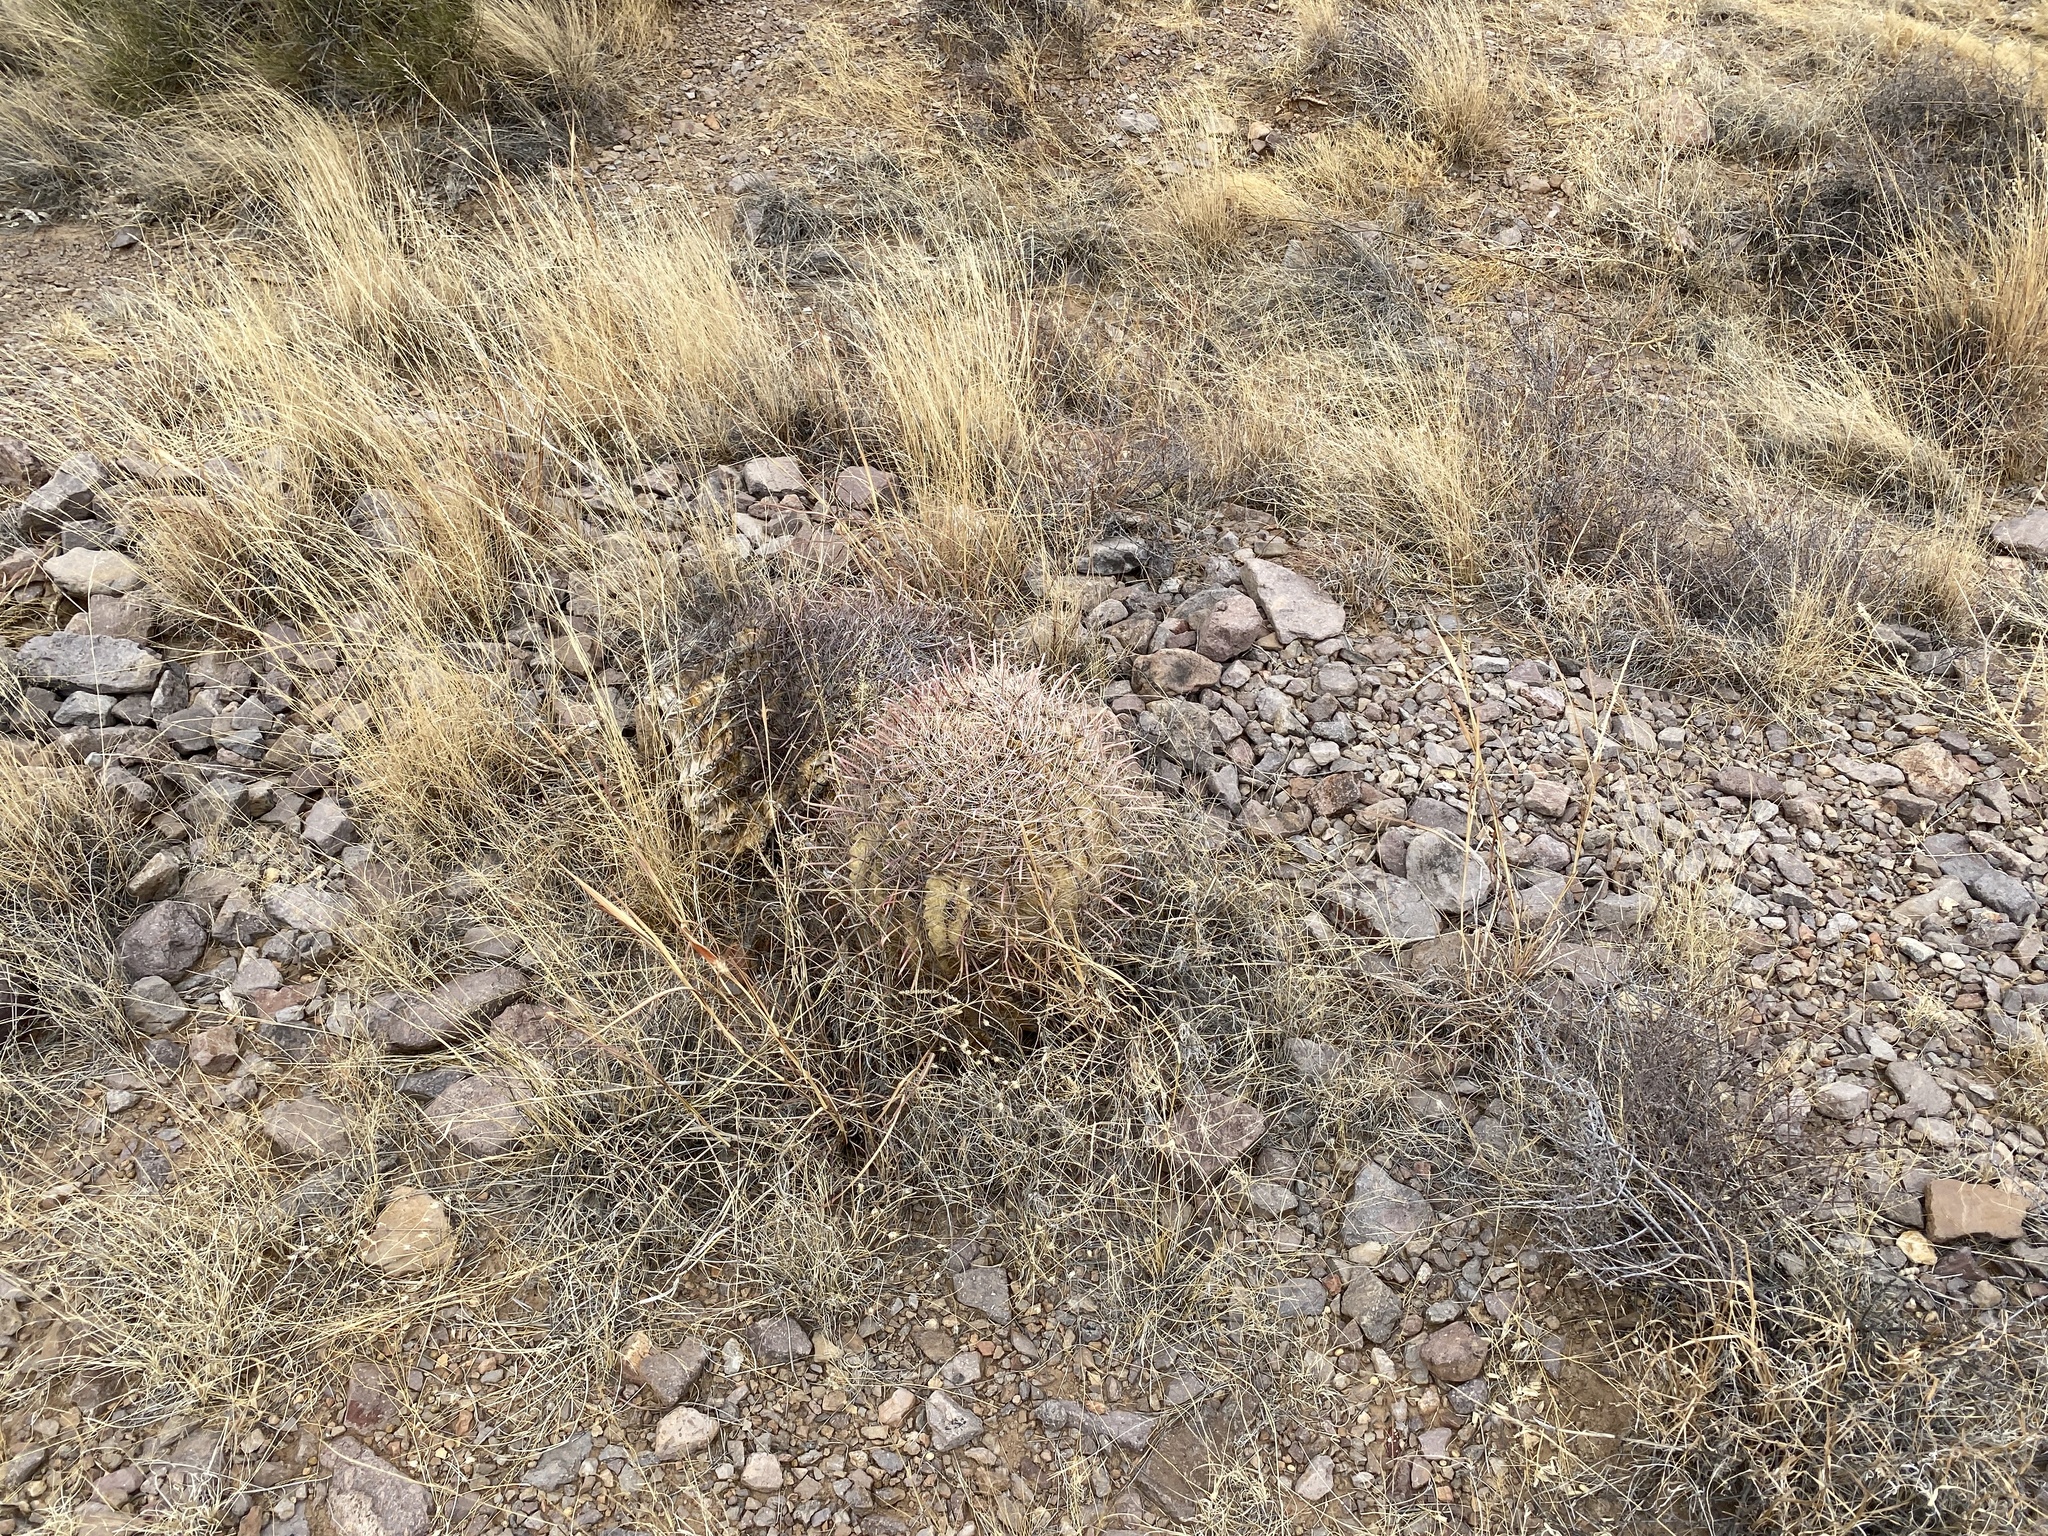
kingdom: Plantae
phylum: Tracheophyta
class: Magnoliopsida
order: Caryophyllales
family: Cactaceae
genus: Ferocactus
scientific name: Ferocactus wislizeni
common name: Candy barrel cactus
